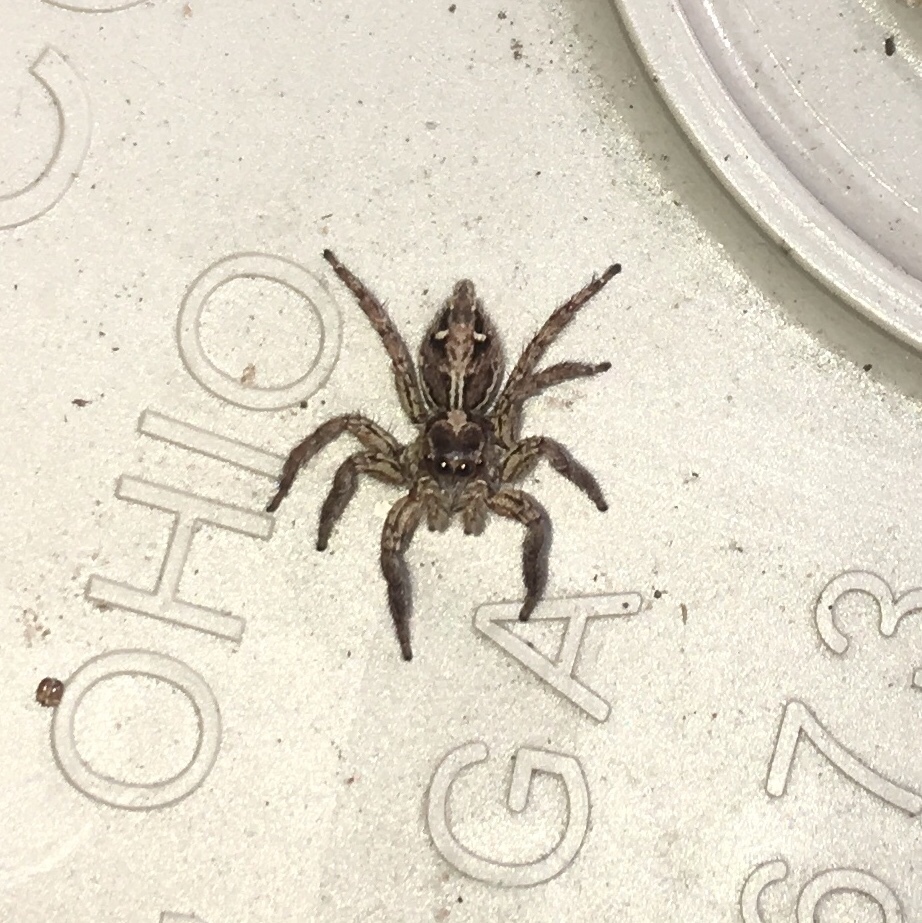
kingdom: Animalia
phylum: Arthropoda
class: Arachnida
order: Araneae
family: Salticidae
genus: Plexippus
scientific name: Plexippus paykulli
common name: Pantropical jumper
